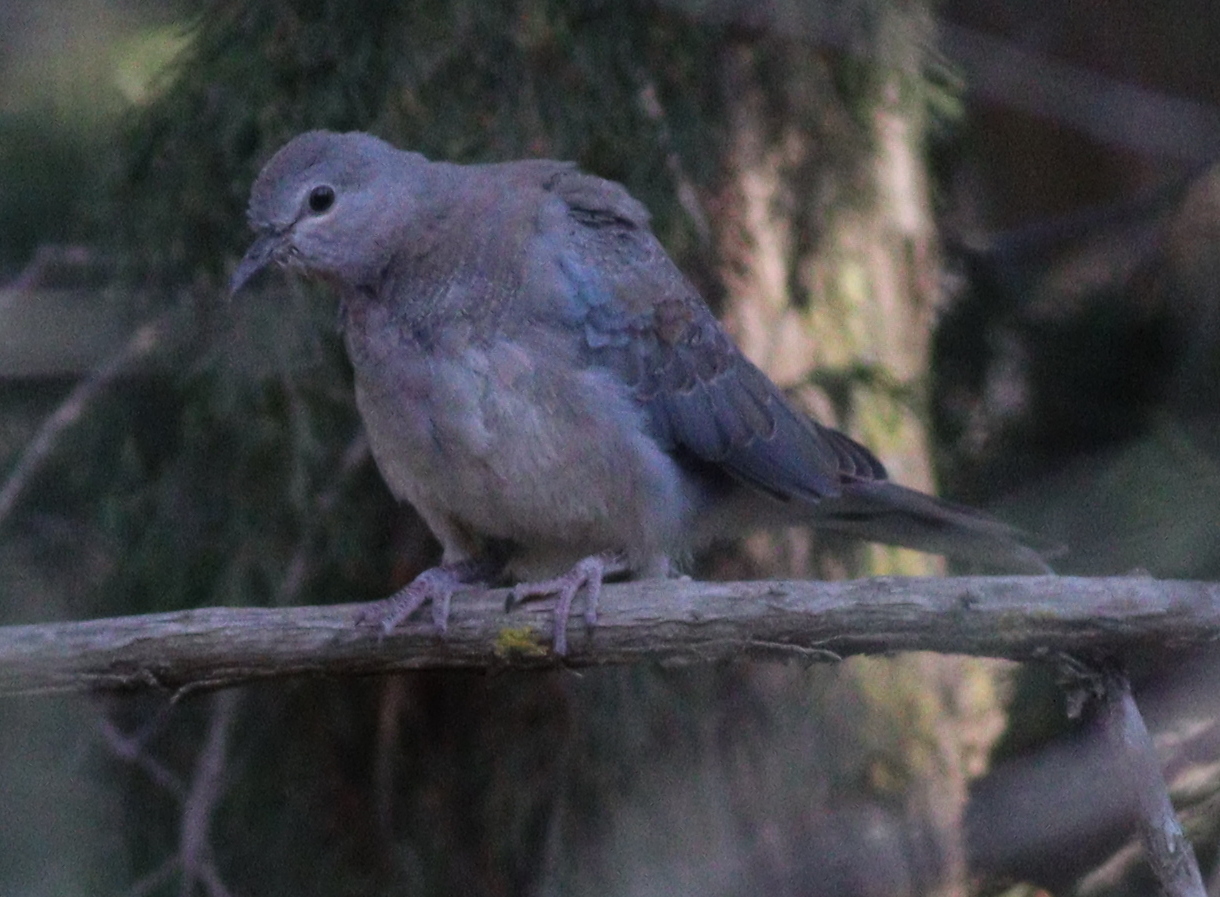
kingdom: Animalia
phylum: Chordata
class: Aves
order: Columbiformes
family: Columbidae
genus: Spilopelia
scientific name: Spilopelia senegalensis
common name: Laughing dove
